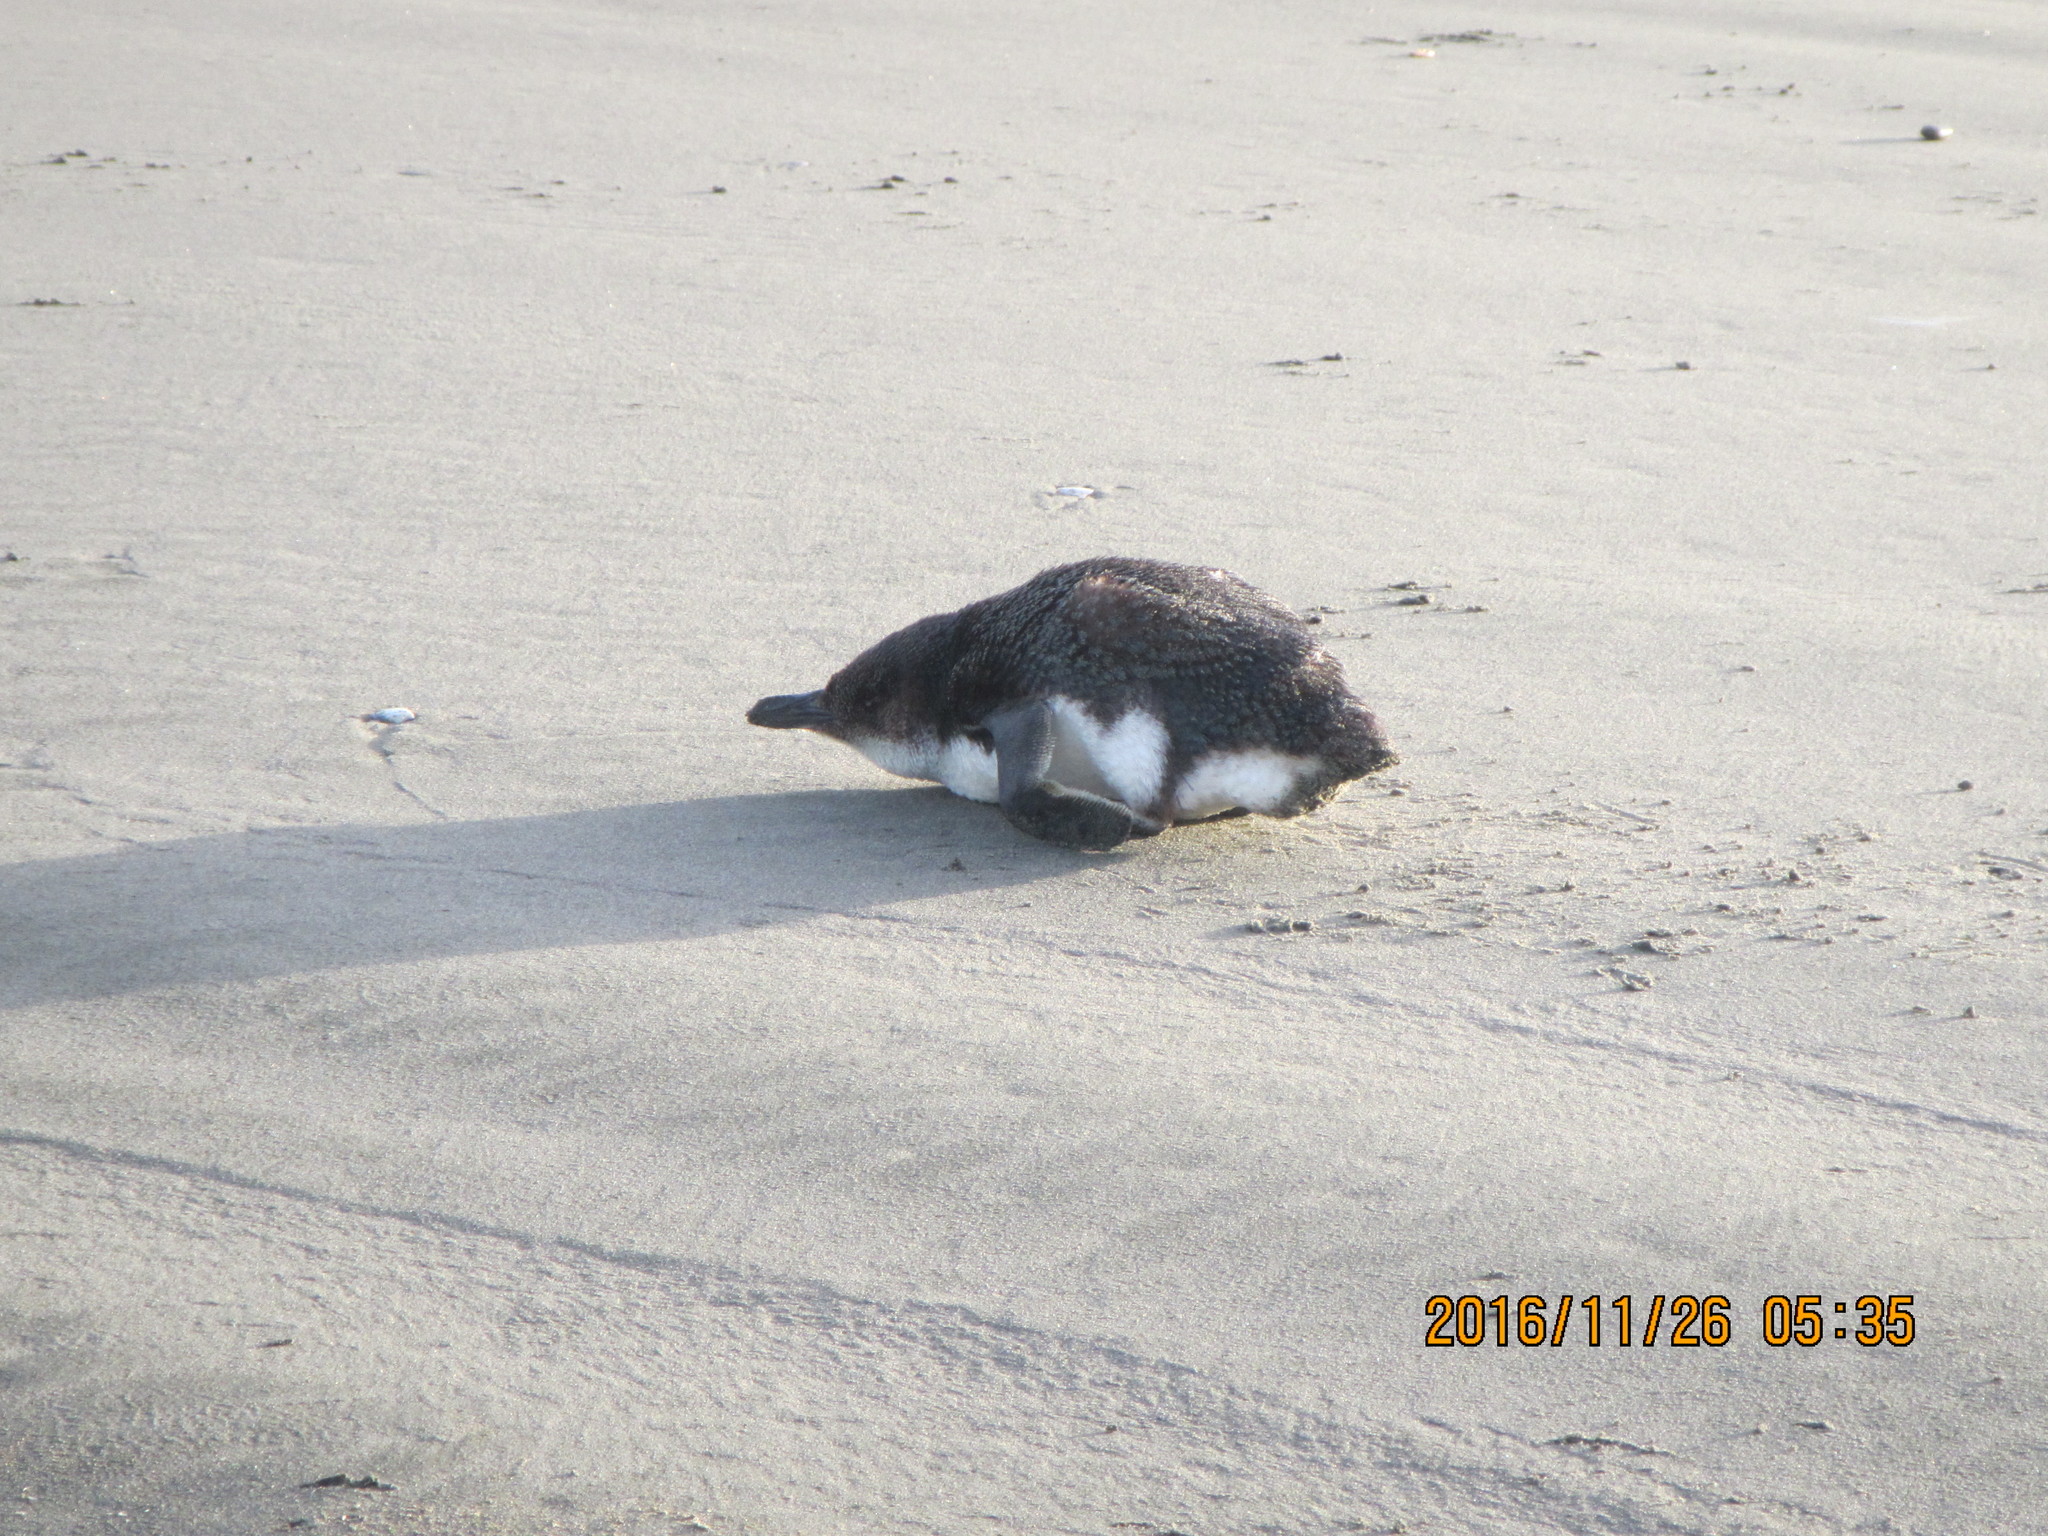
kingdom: Animalia
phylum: Chordata
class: Aves
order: Sphenisciformes
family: Spheniscidae
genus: Eudyptula
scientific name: Eudyptula minor
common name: Little penguin
